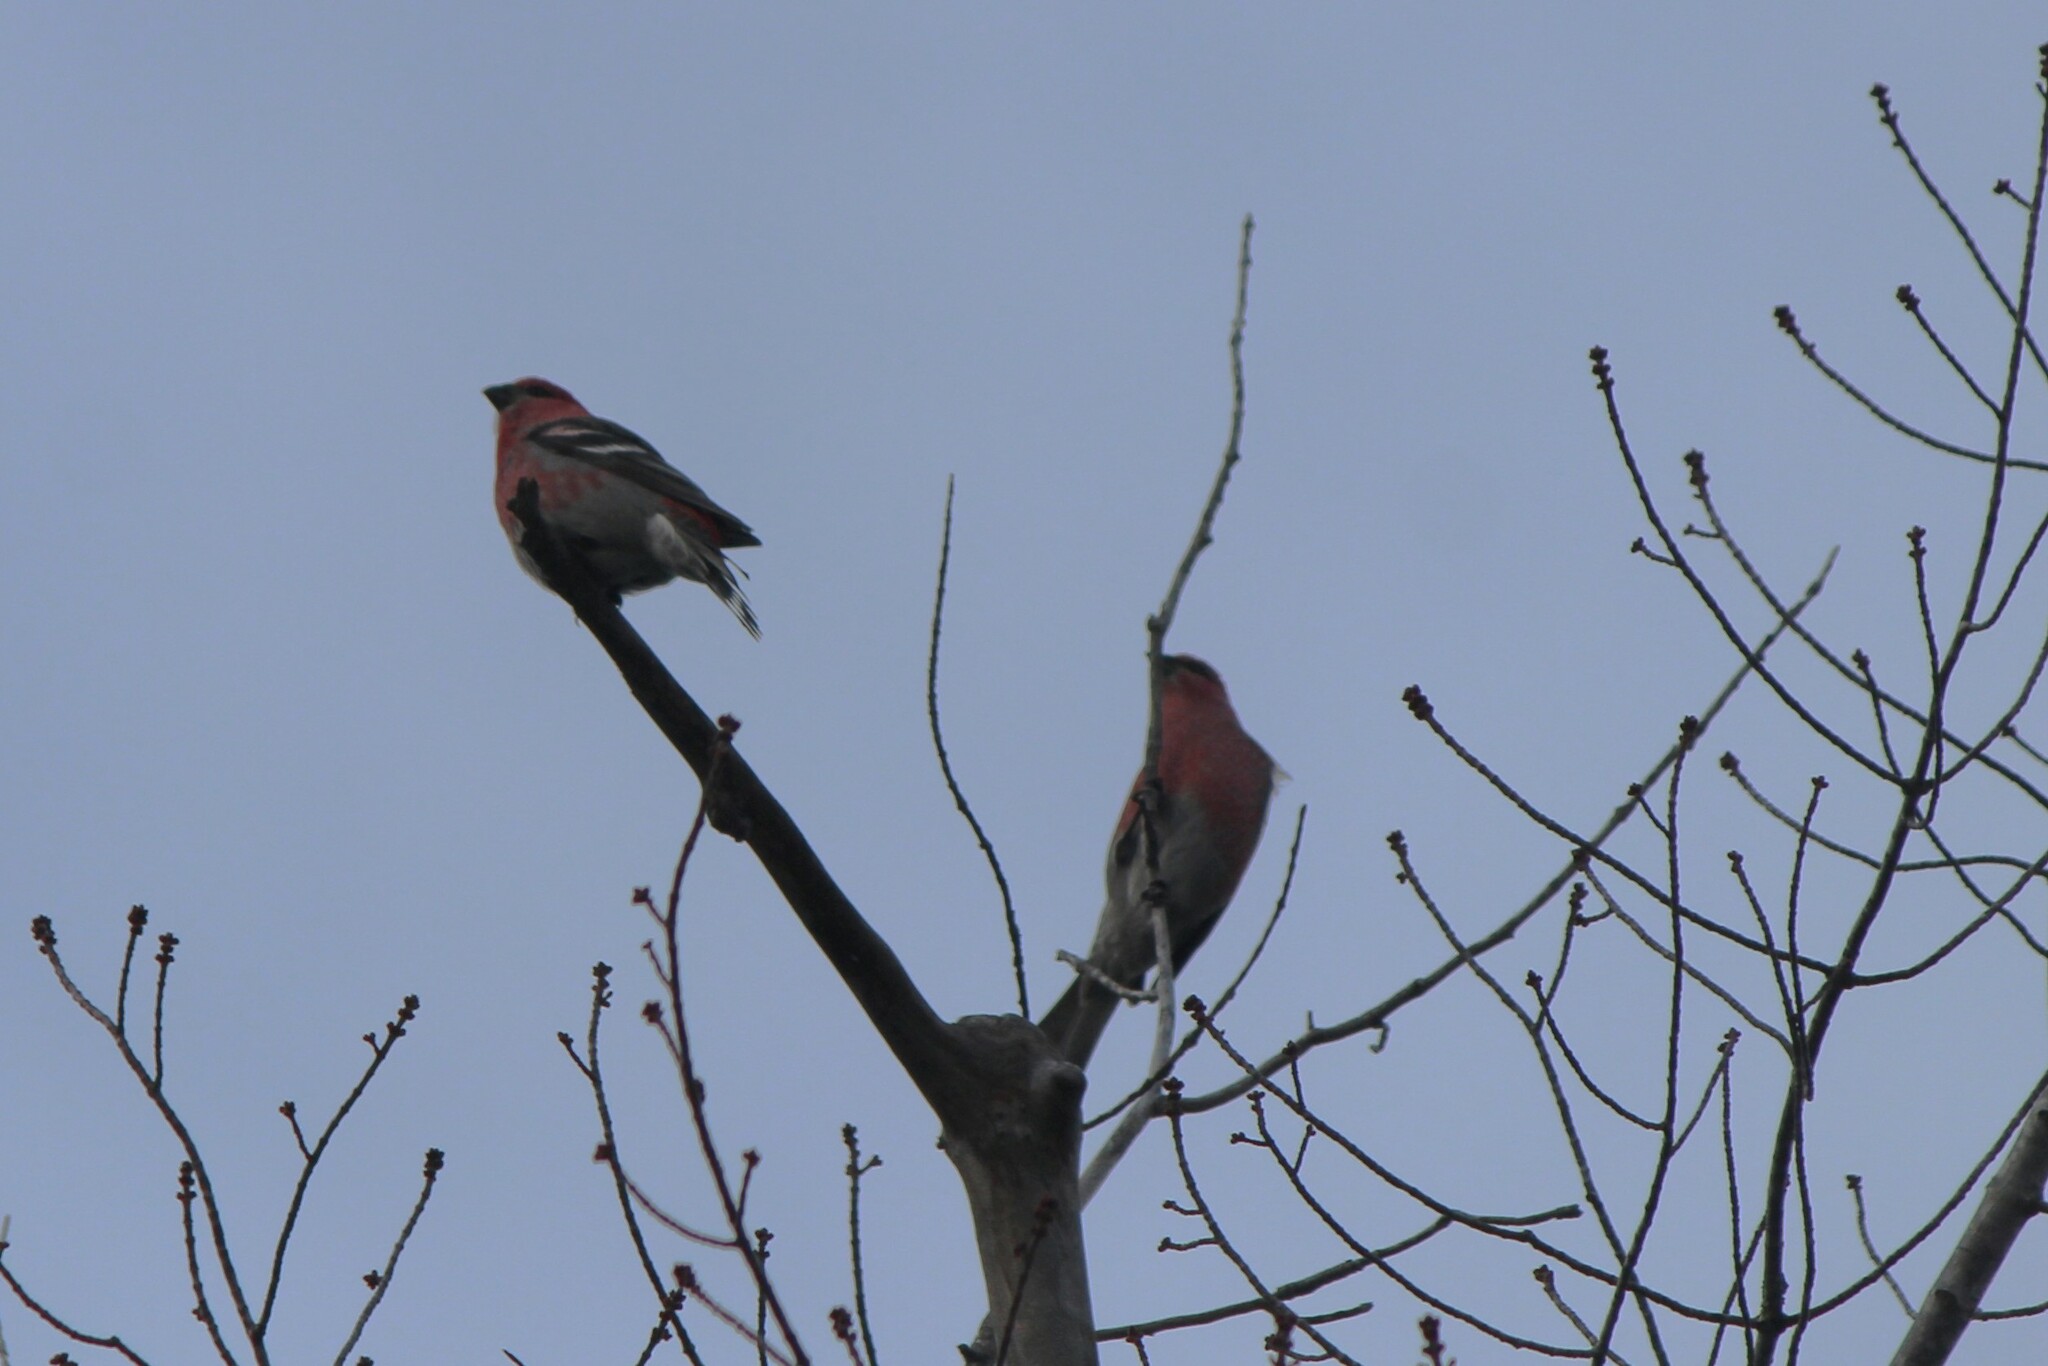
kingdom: Animalia
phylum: Chordata
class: Aves
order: Passeriformes
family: Fringillidae
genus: Pinicola
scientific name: Pinicola enucleator
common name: Pine grosbeak
